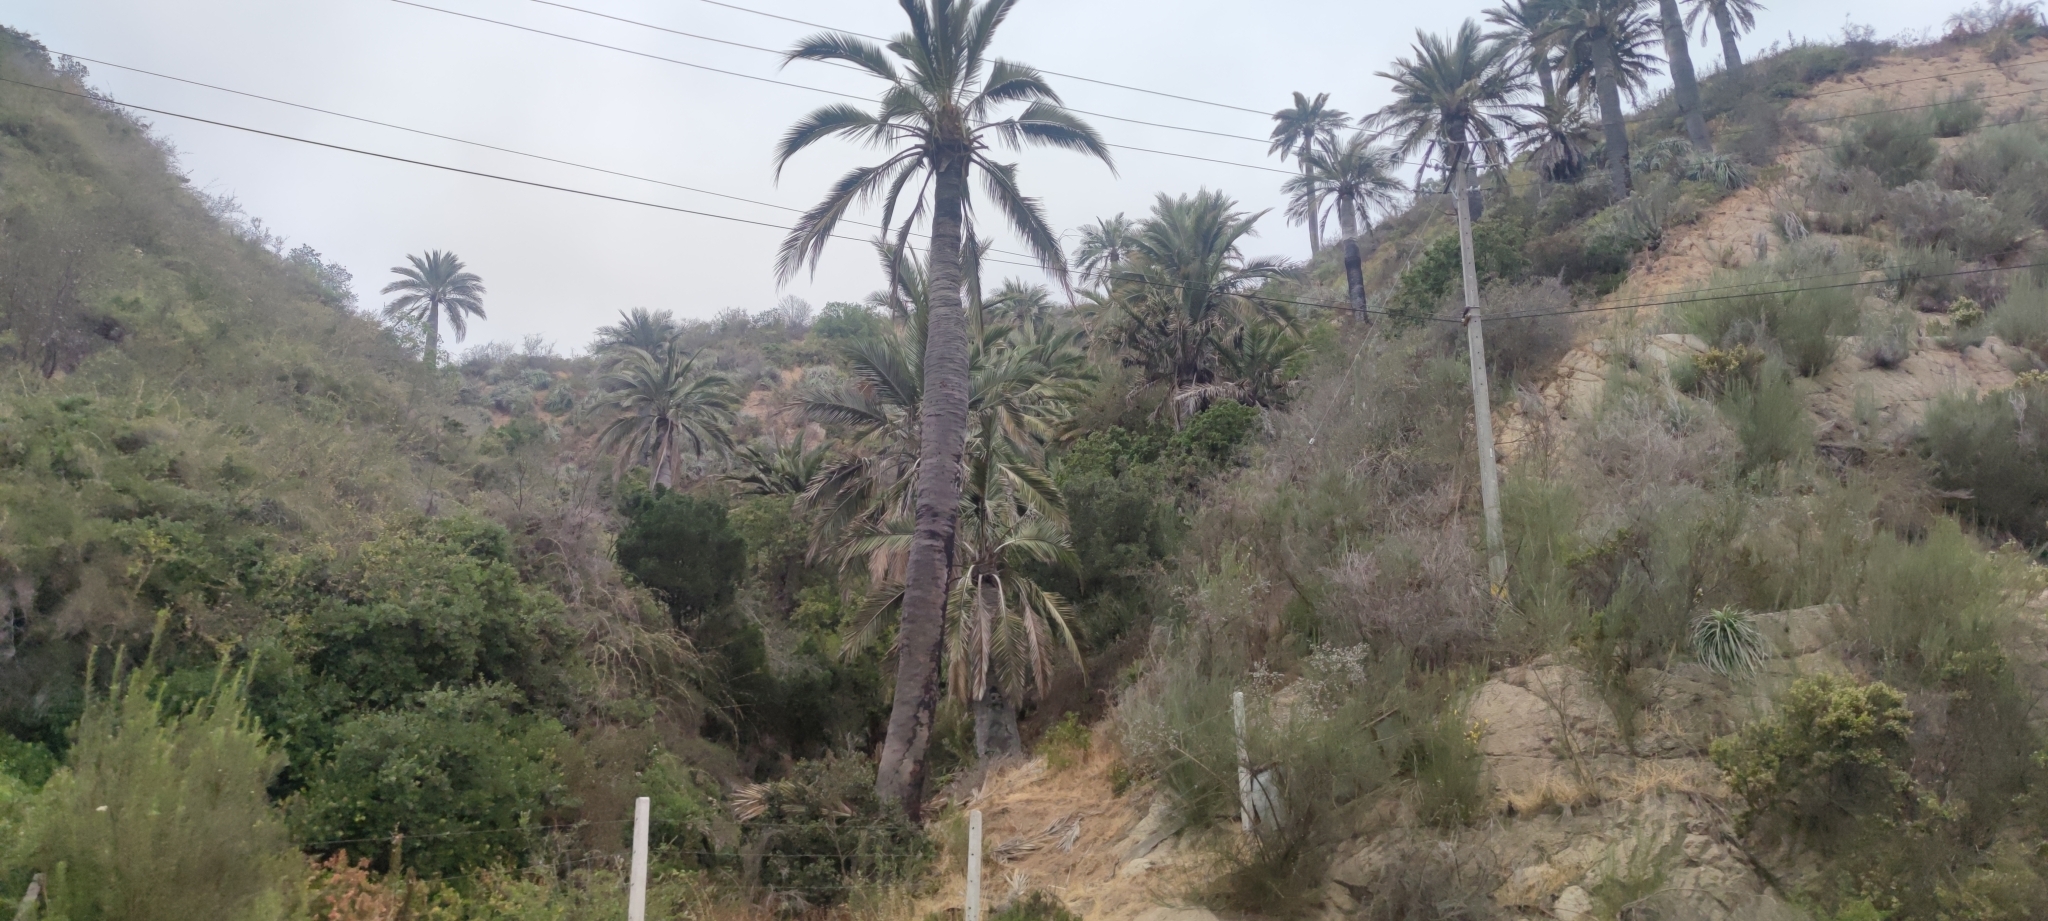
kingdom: Plantae
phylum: Tracheophyta
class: Liliopsida
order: Arecales
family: Arecaceae
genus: Jubaea
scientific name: Jubaea chilensis
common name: Coquito palm
